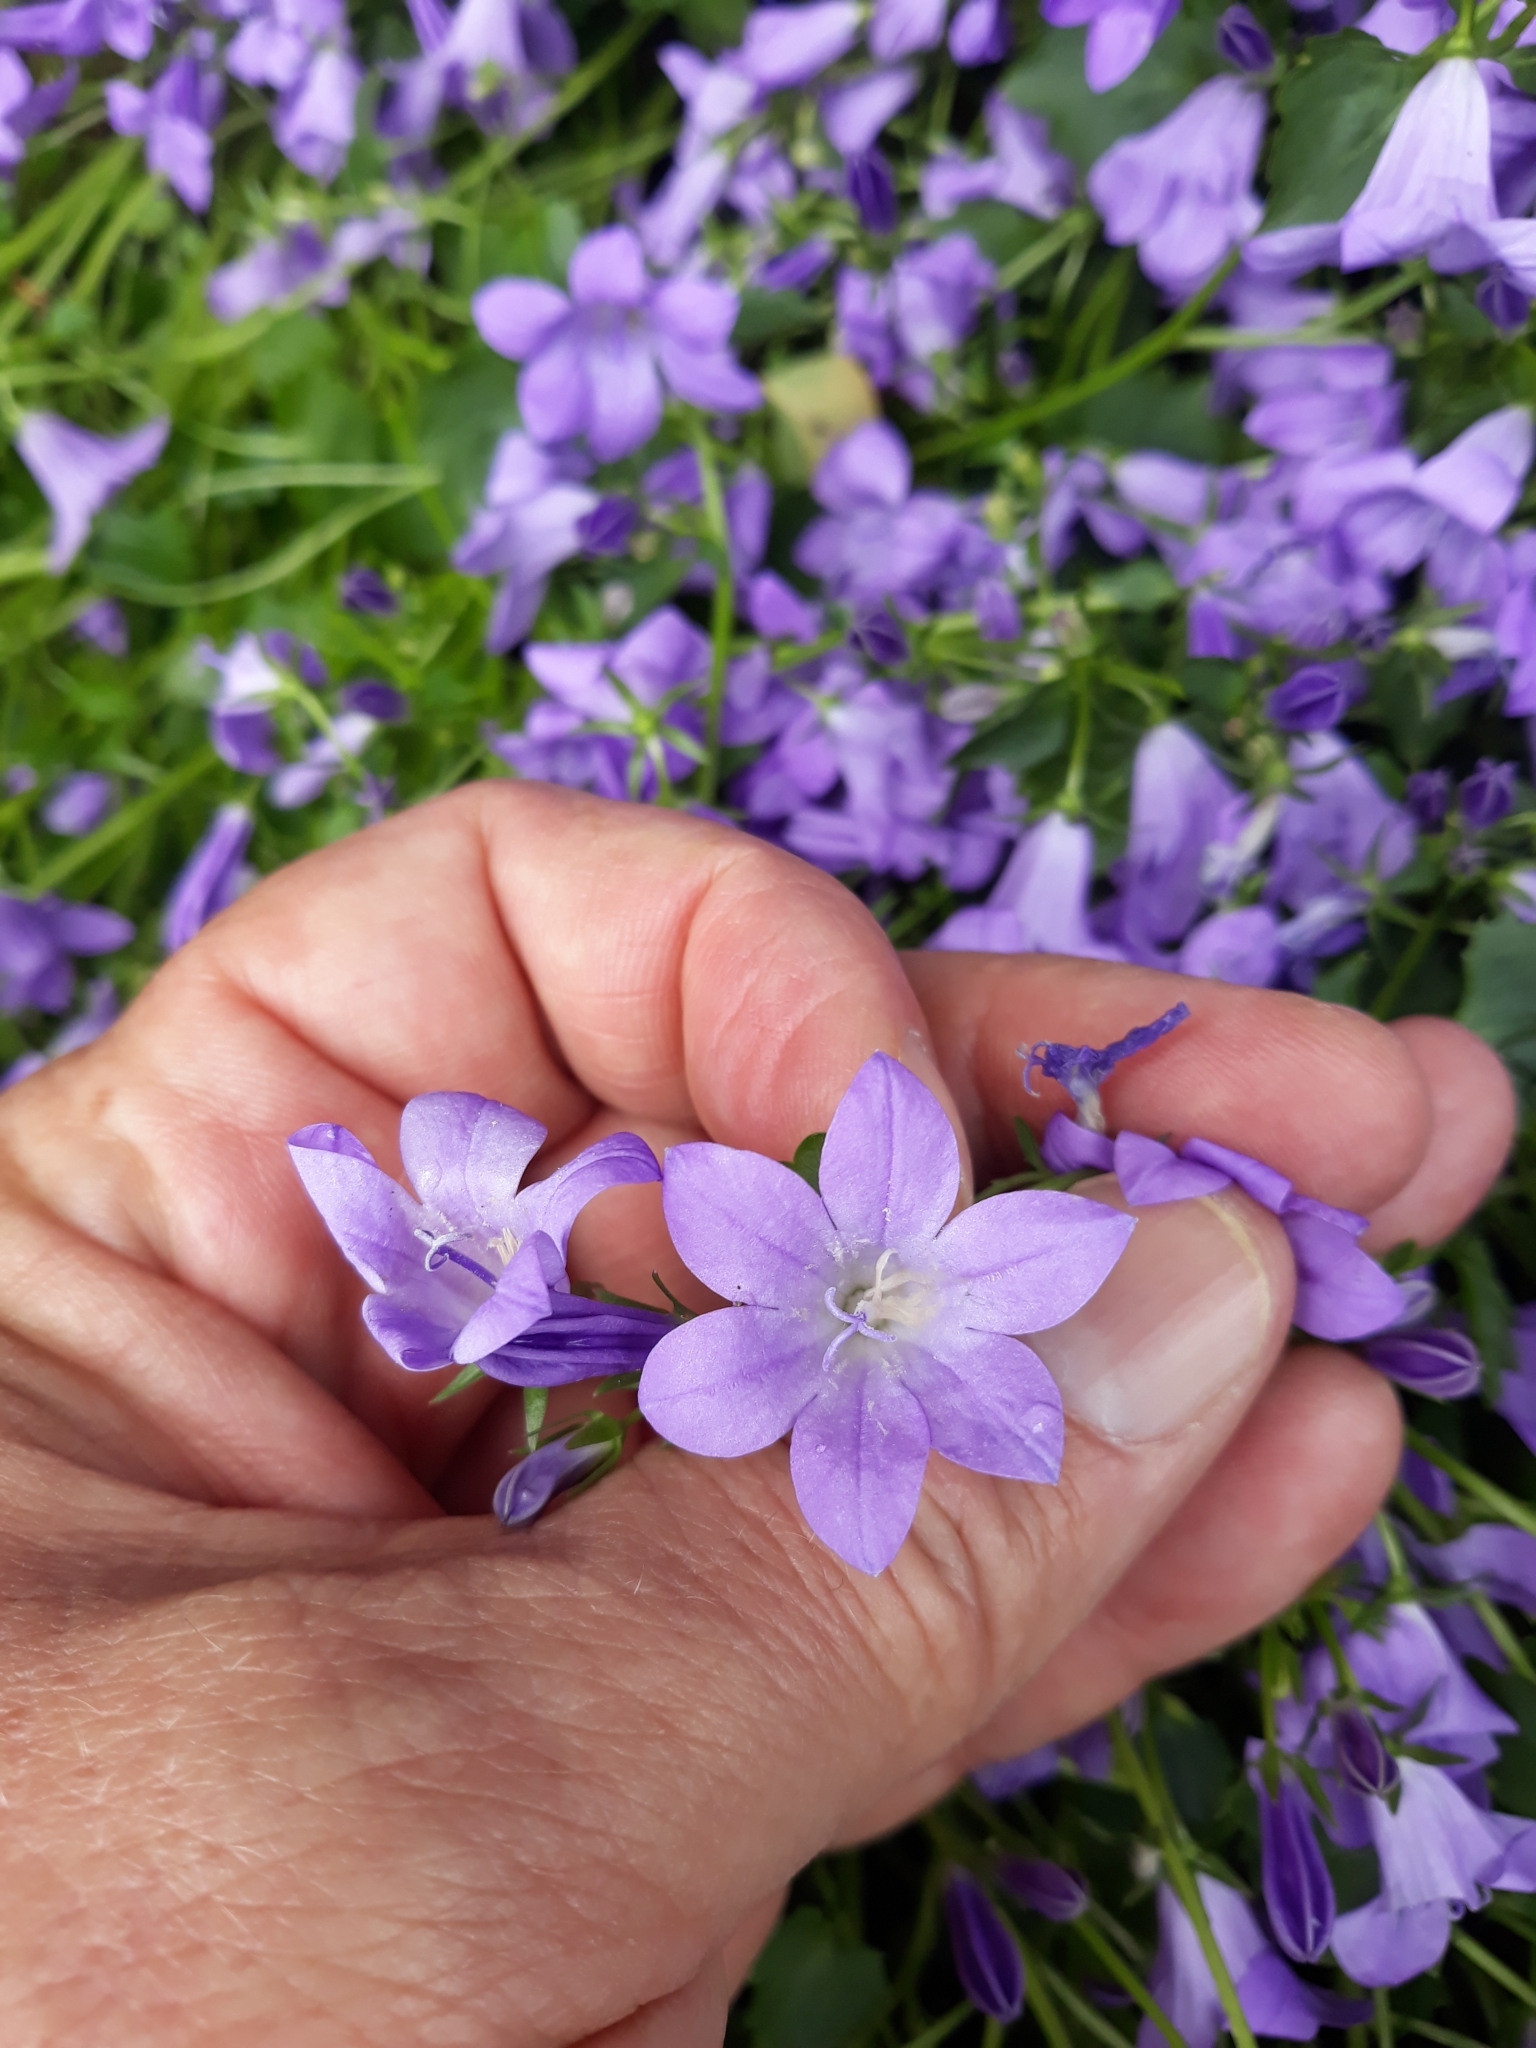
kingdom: Plantae
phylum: Tracheophyta
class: Magnoliopsida
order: Asterales
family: Campanulaceae
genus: Campanula
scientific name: Campanula portenschlagiana
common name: Adria bellflower
